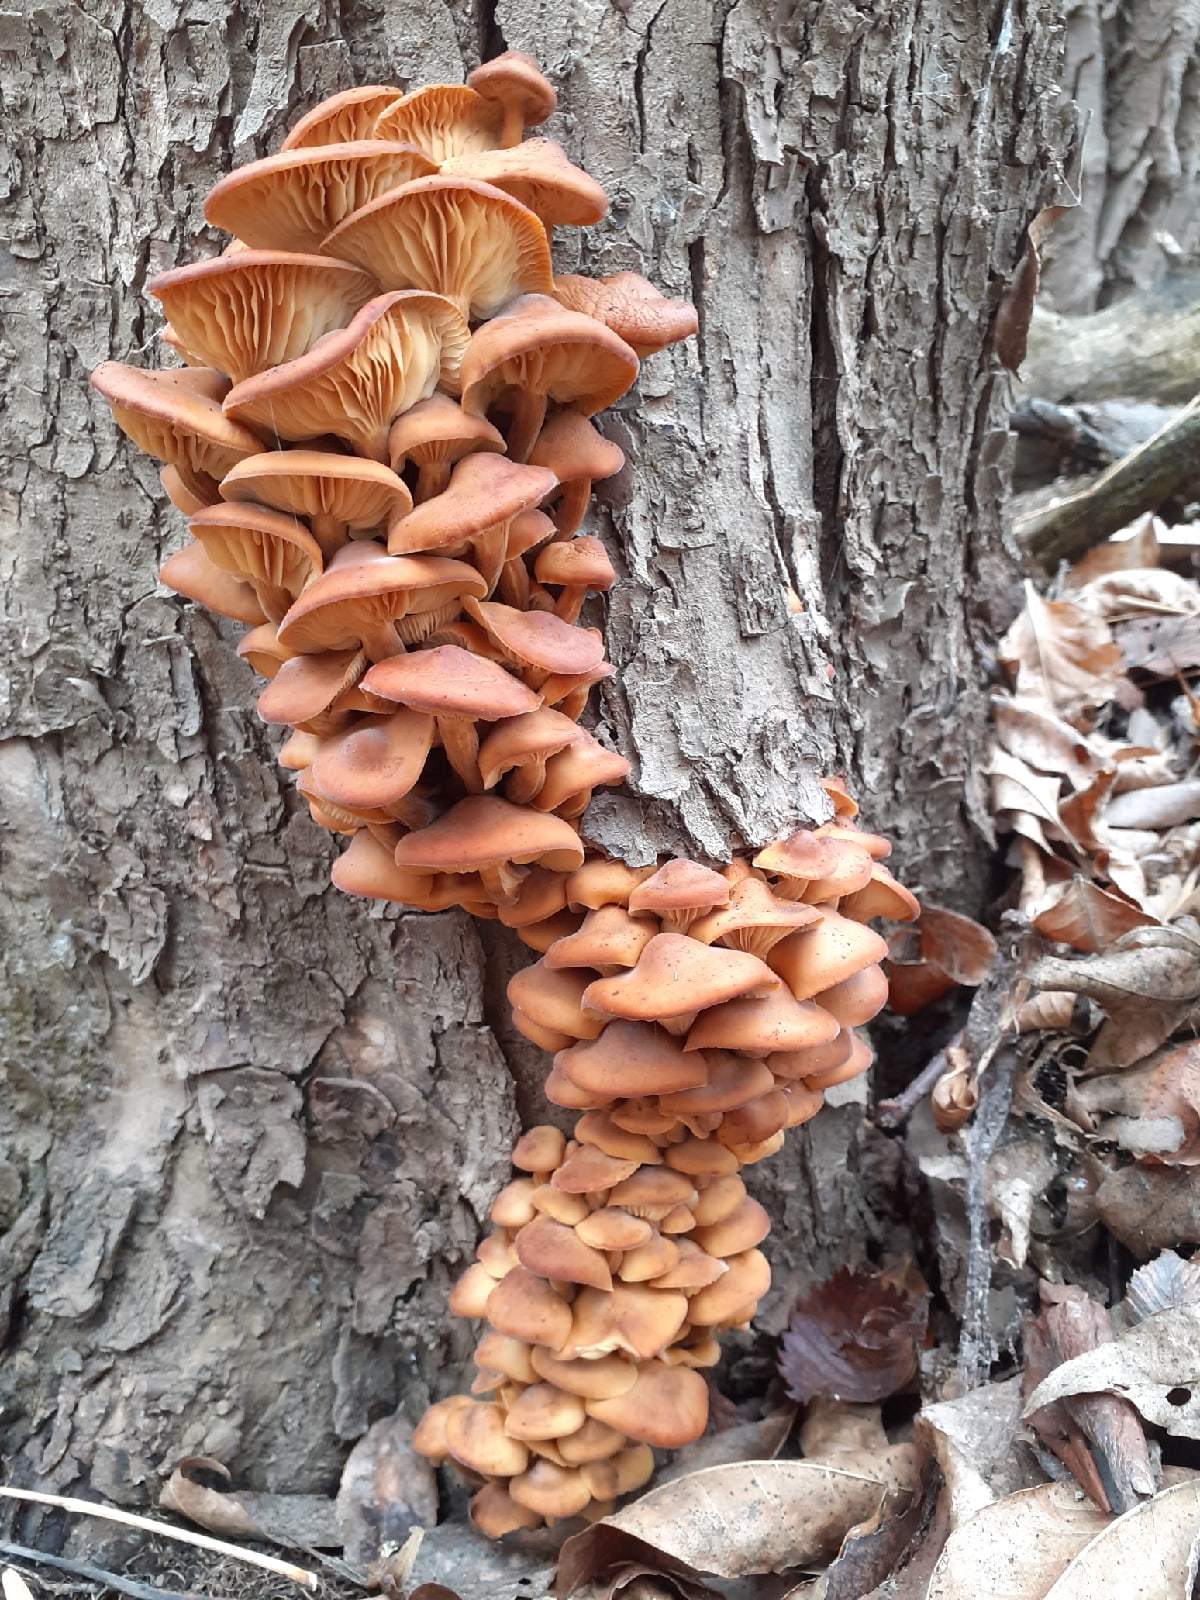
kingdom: Fungi
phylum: Basidiomycota
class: Agaricomycetes
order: Agaricales
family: Physalacriaceae
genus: Flammulina
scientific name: Flammulina
